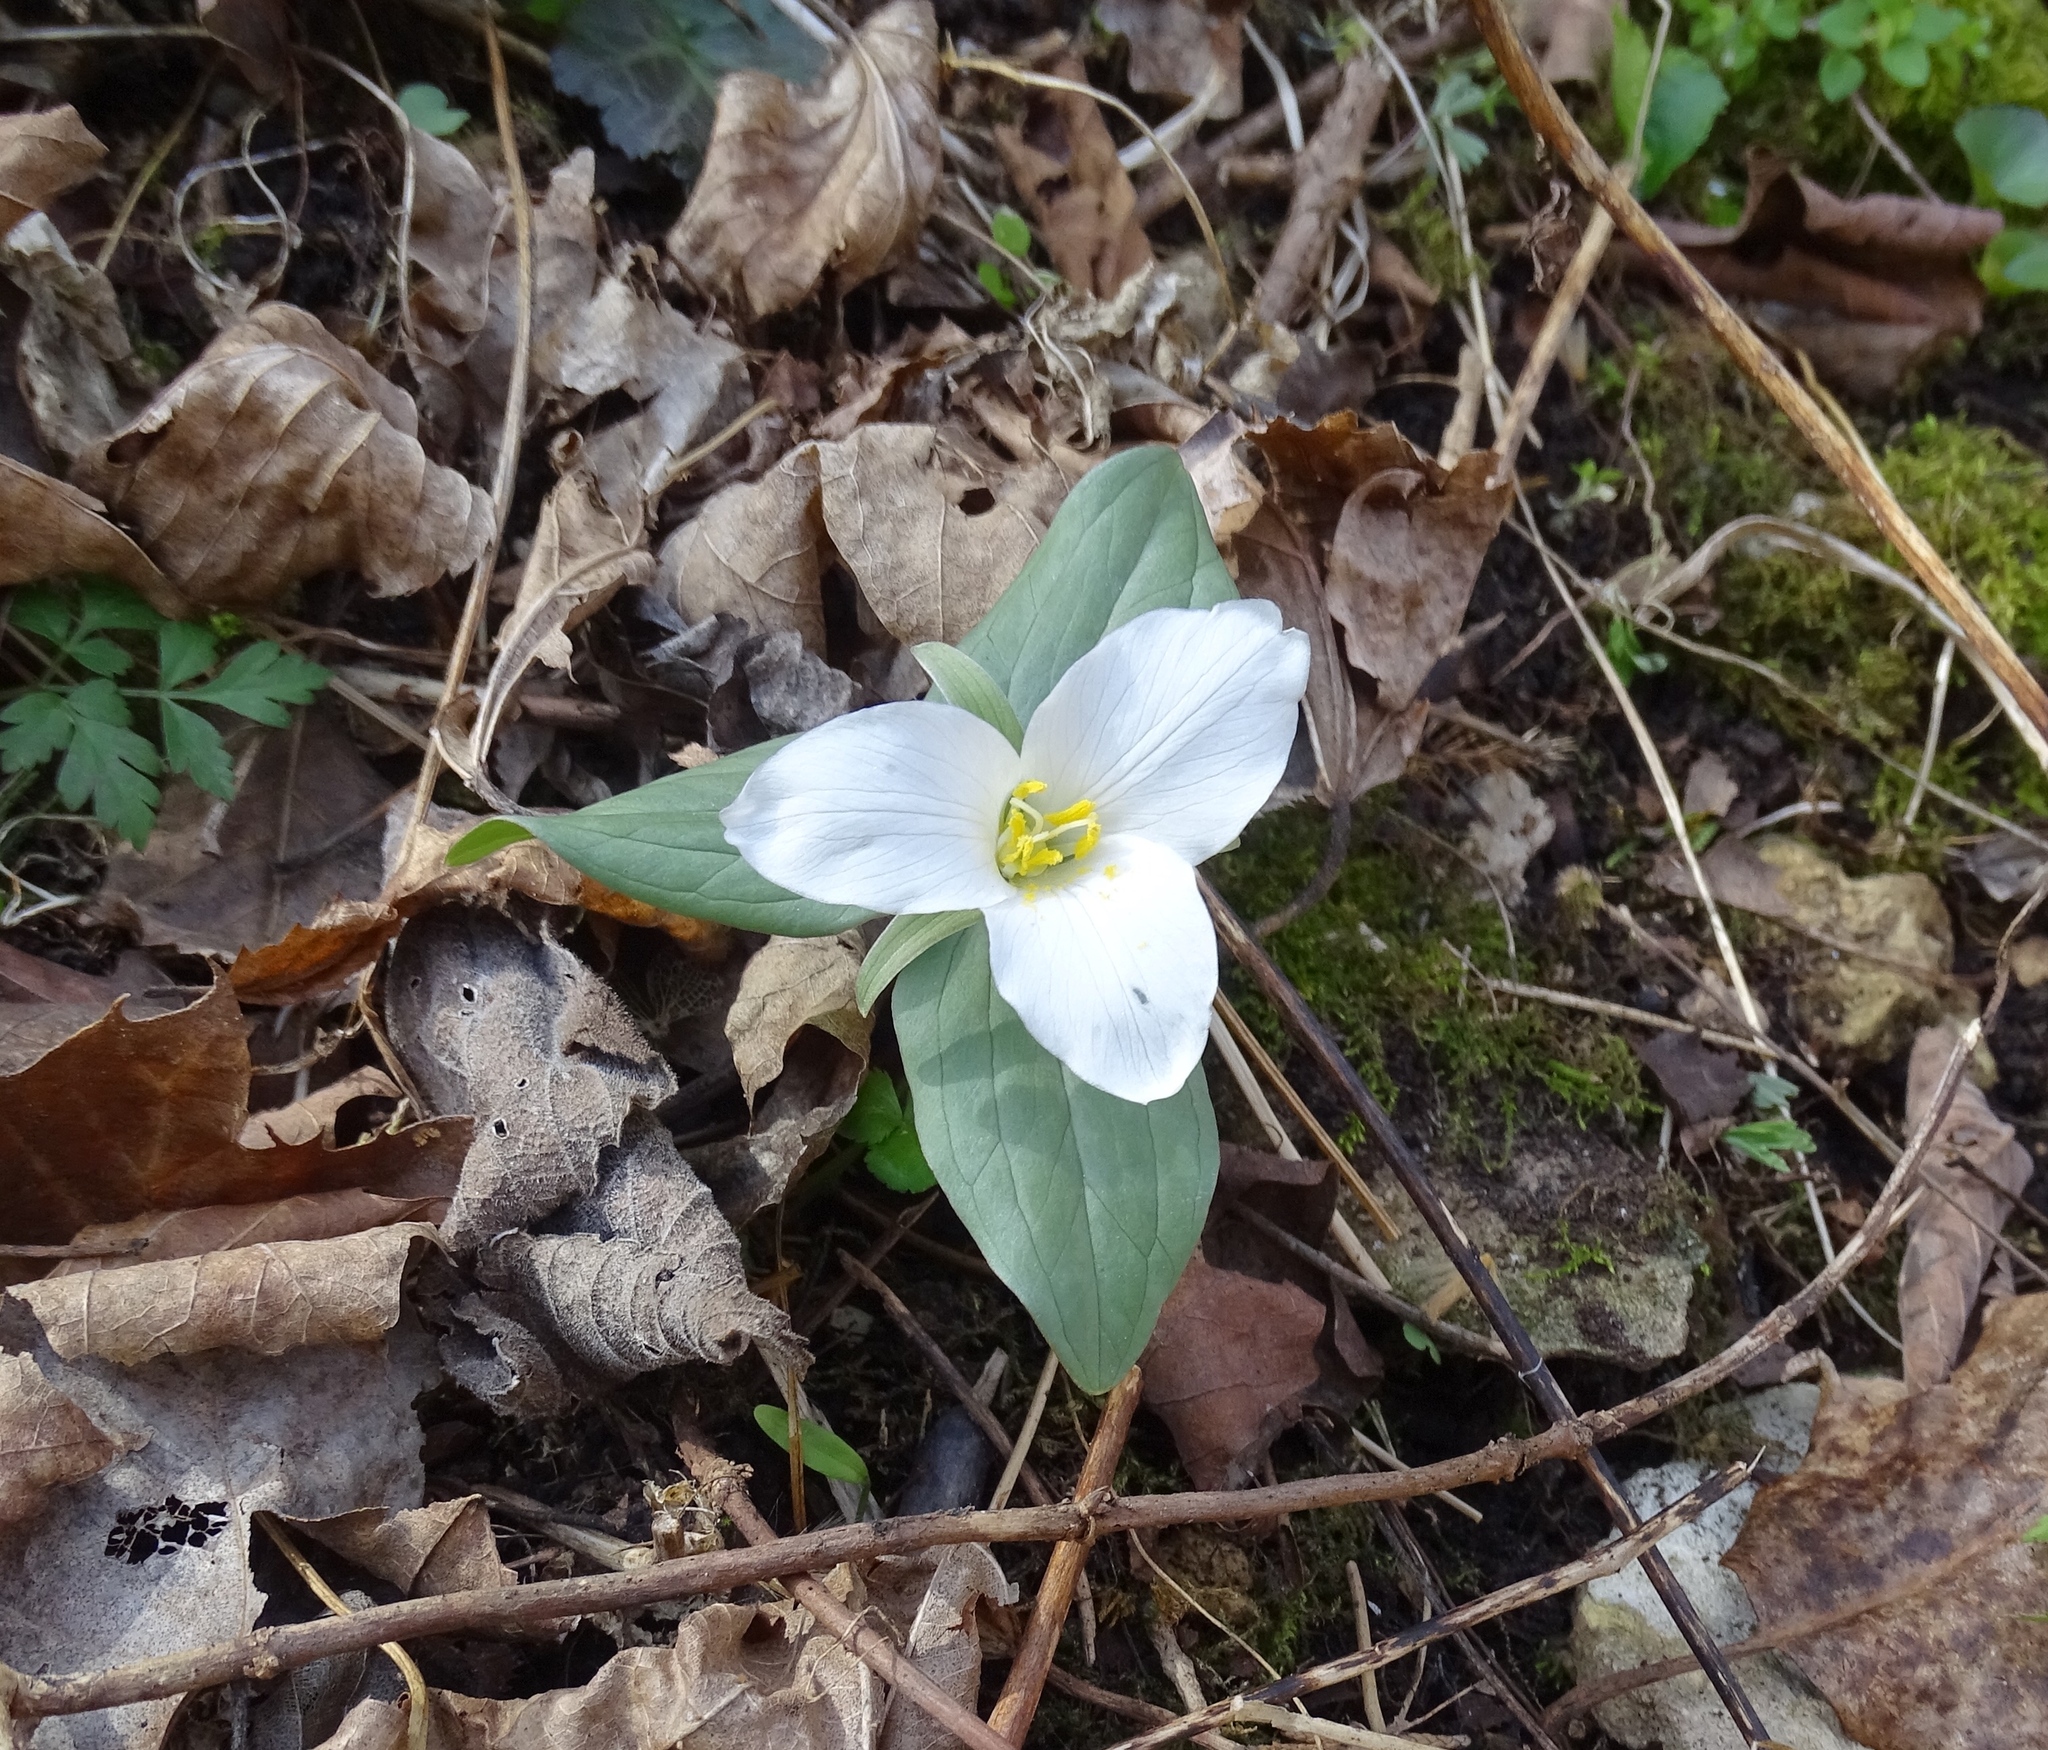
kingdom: Plantae
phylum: Tracheophyta
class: Liliopsida
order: Liliales
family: Melanthiaceae
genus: Trillium
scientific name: Trillium nivale
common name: Dwarf white trillium
